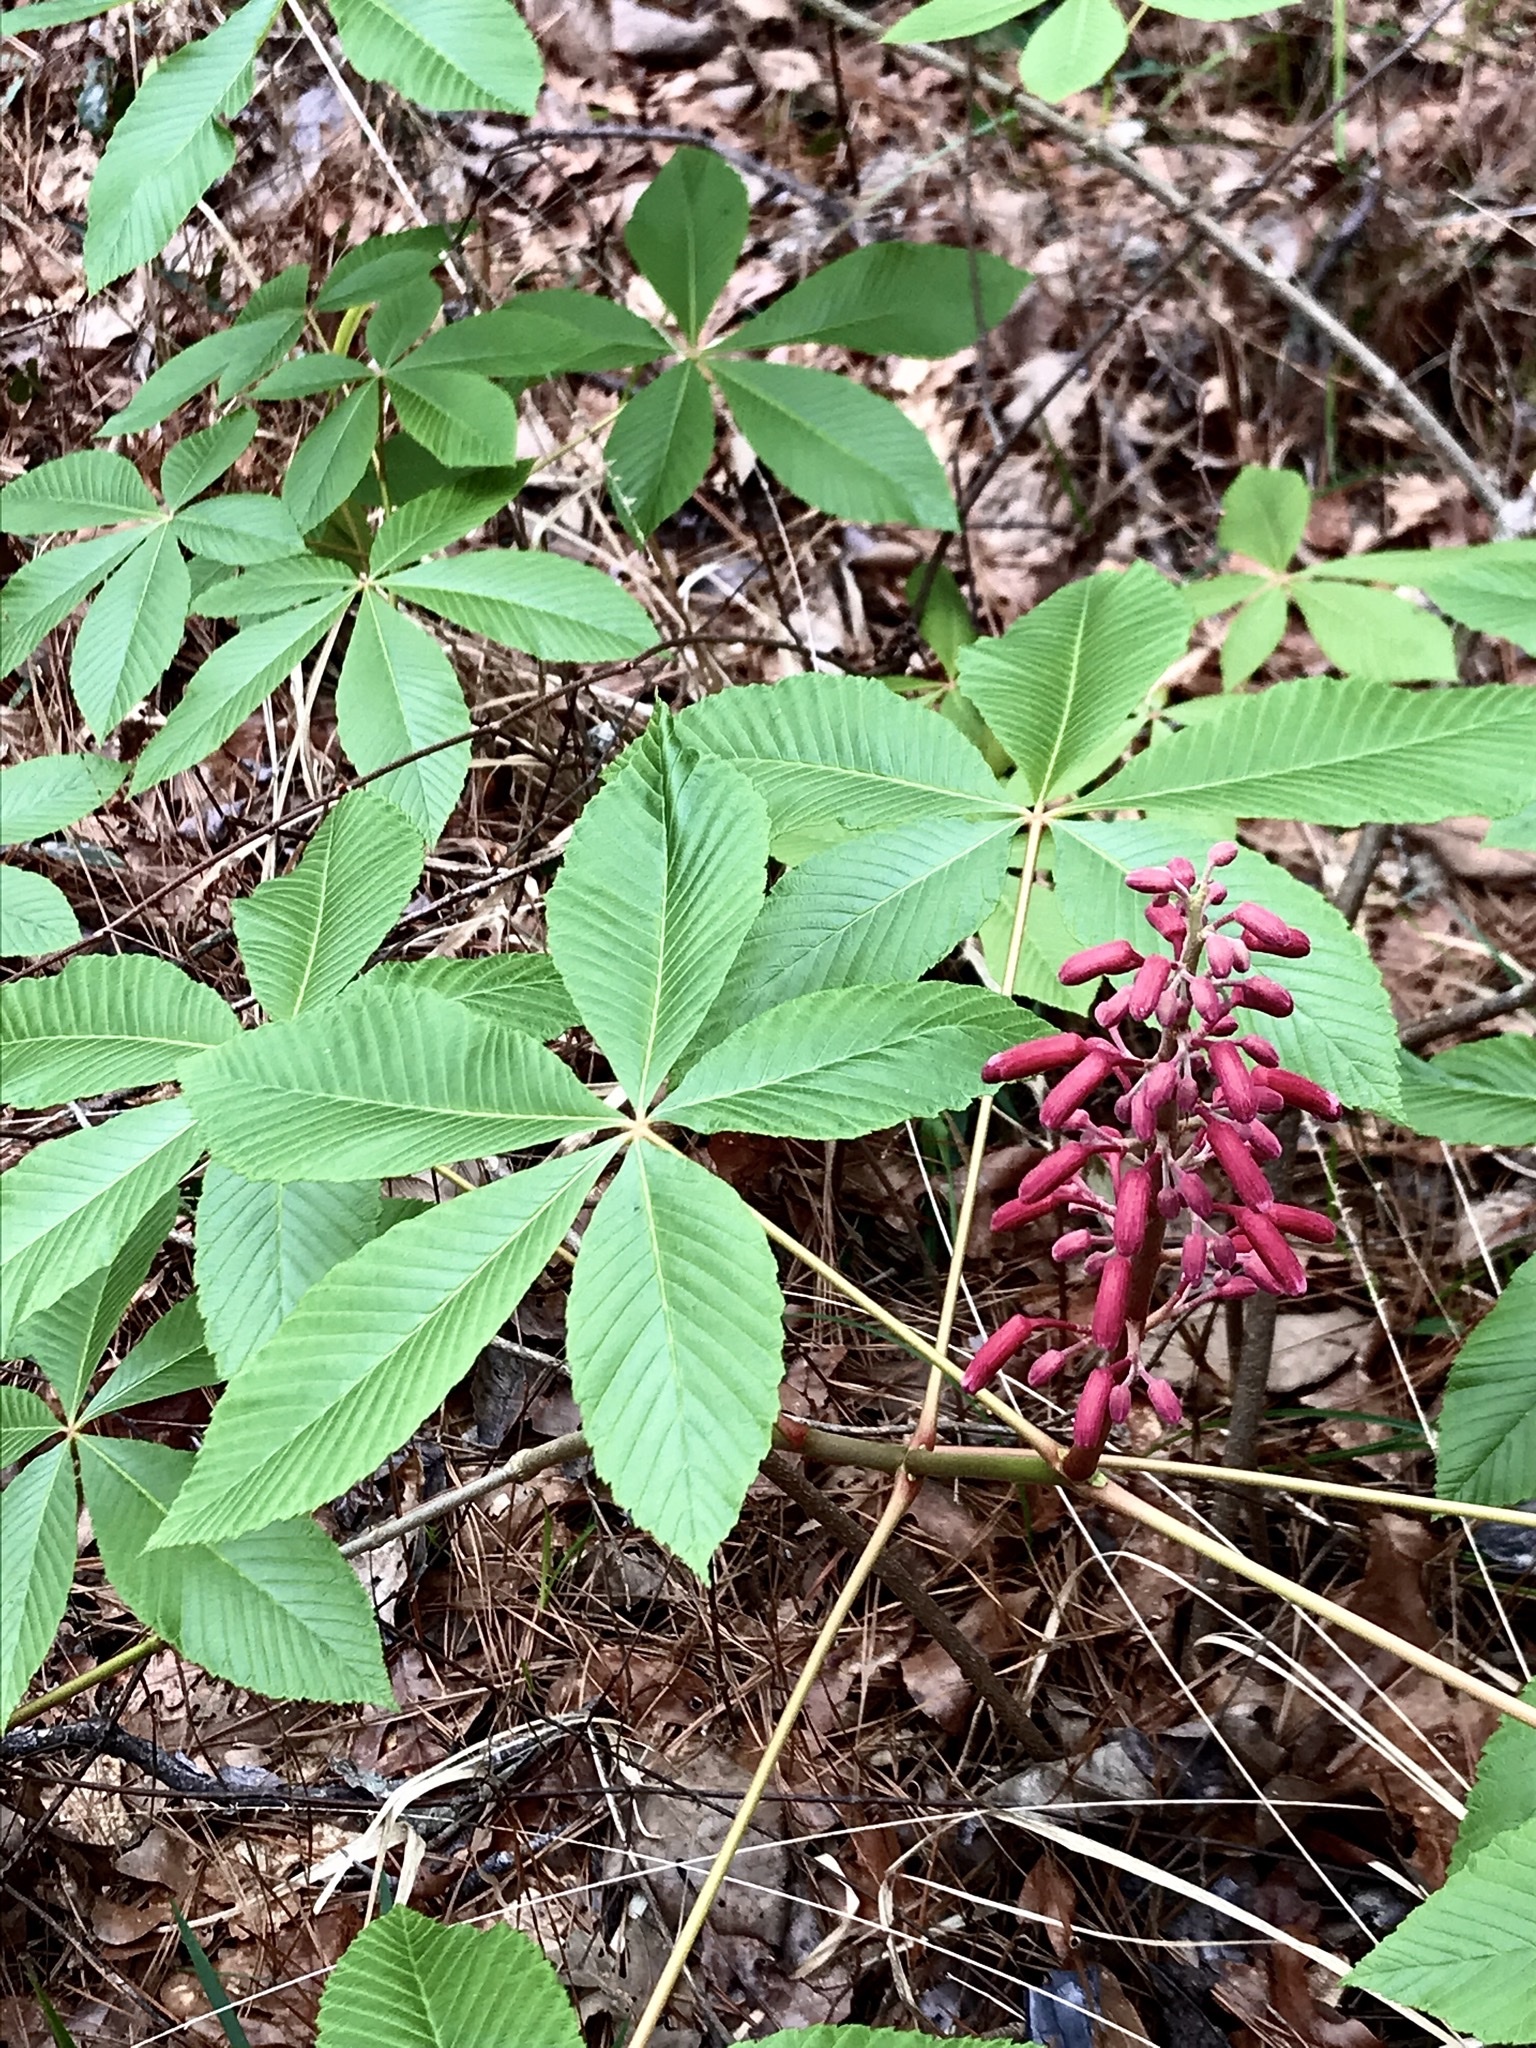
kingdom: Plantae
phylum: Tracheophyta
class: Magnoliopsida
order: Sapindales
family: Sapindaceae
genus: Aesculus
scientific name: Aesculus pavia
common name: Red buckeye
